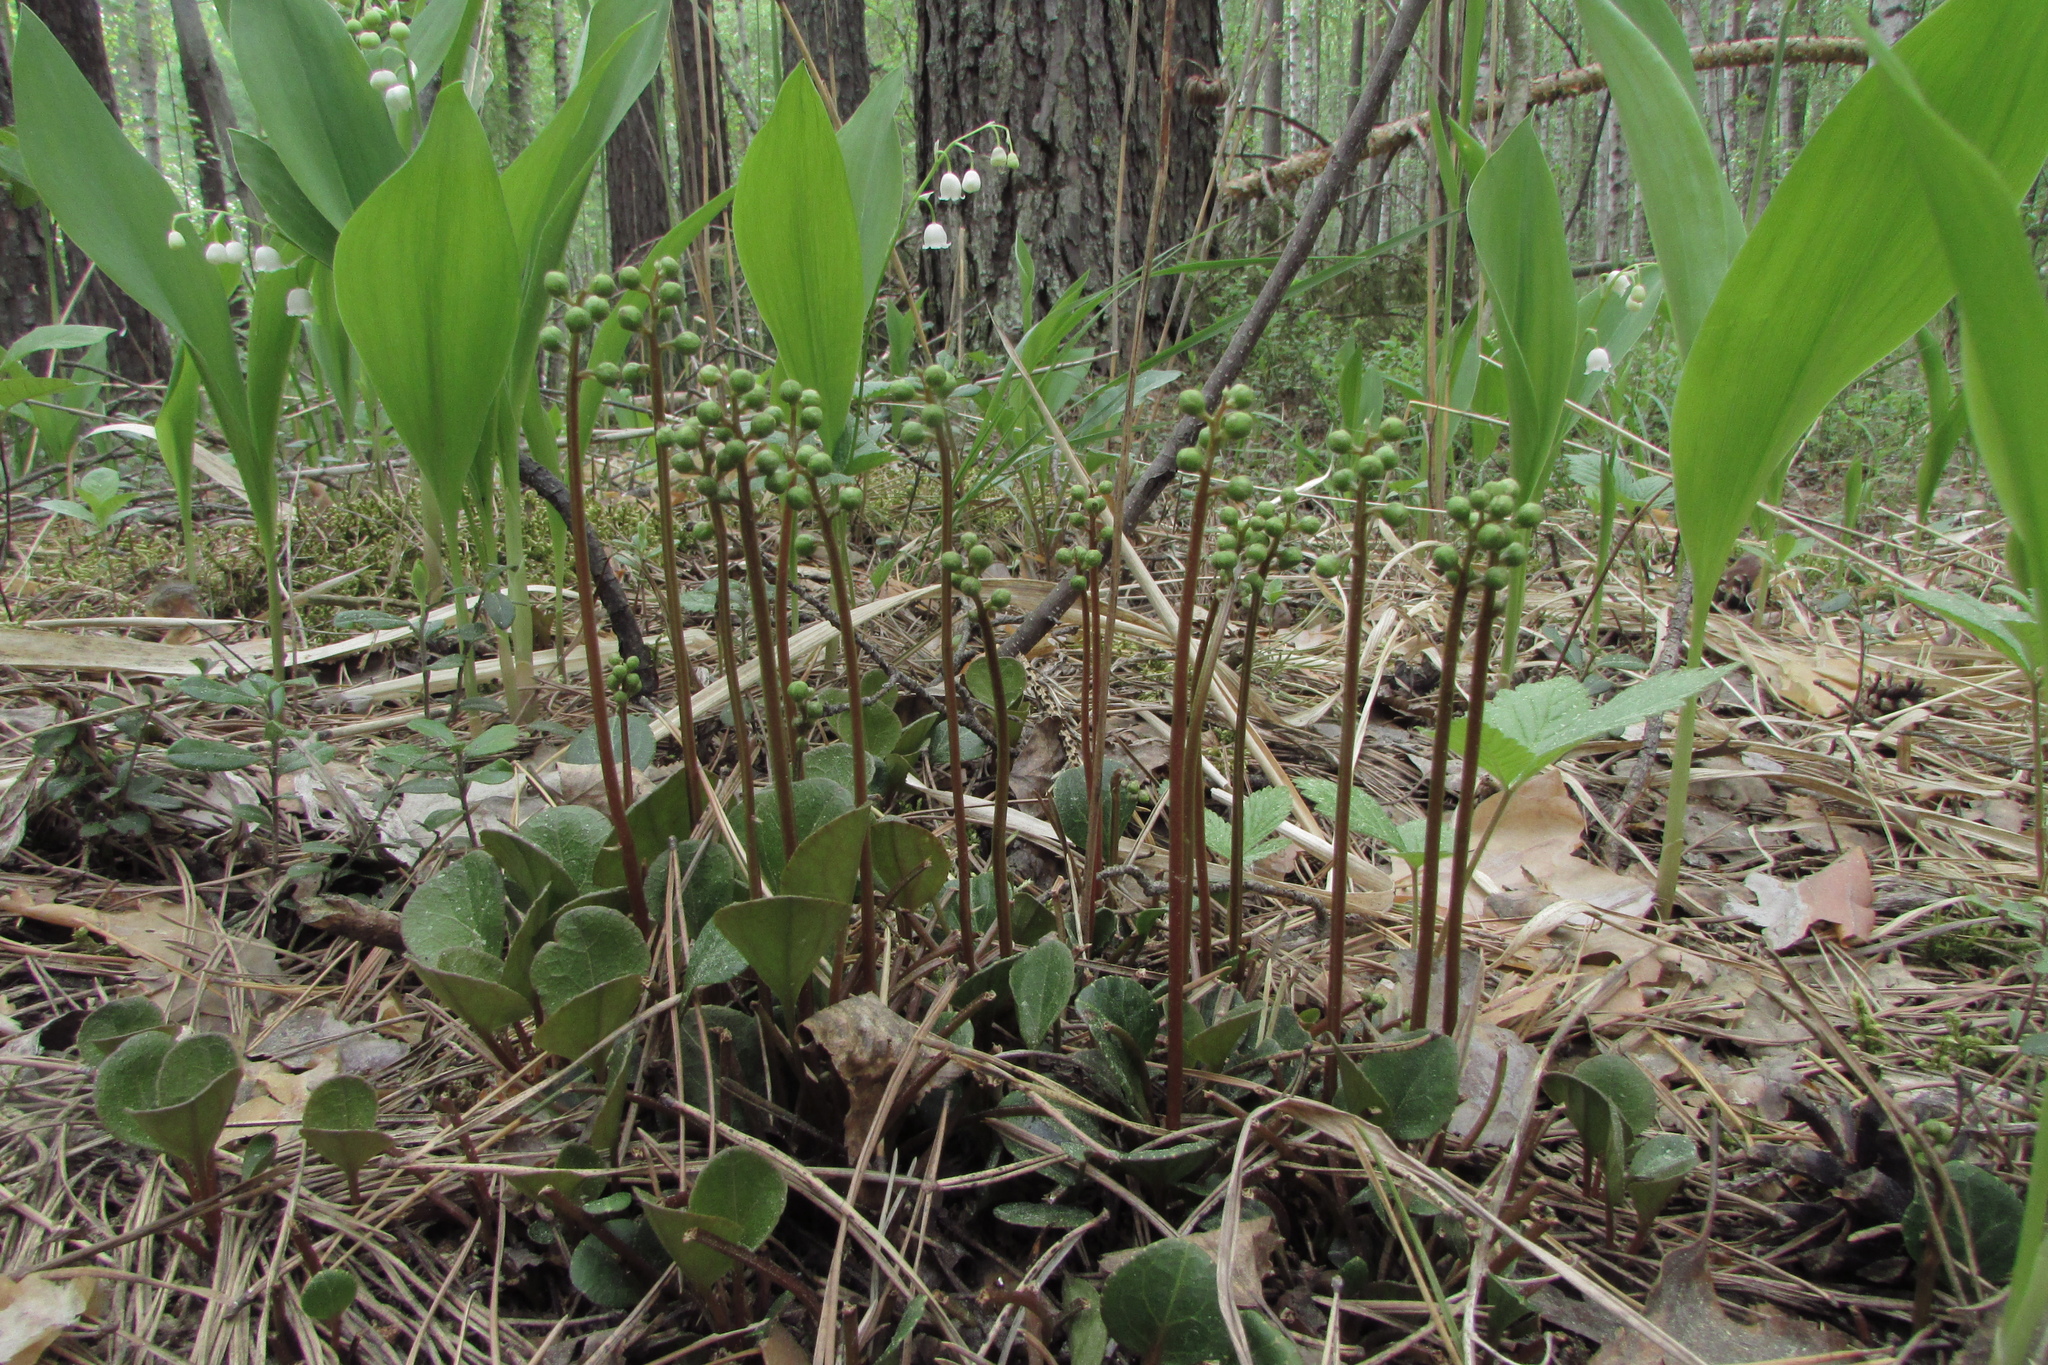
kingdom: Plantae
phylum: Tracheophyta
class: Magnoliopsida
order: Ericales
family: Ericaceae
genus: Pyrola
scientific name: Pyrola chlorantha
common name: Green wintergreen
